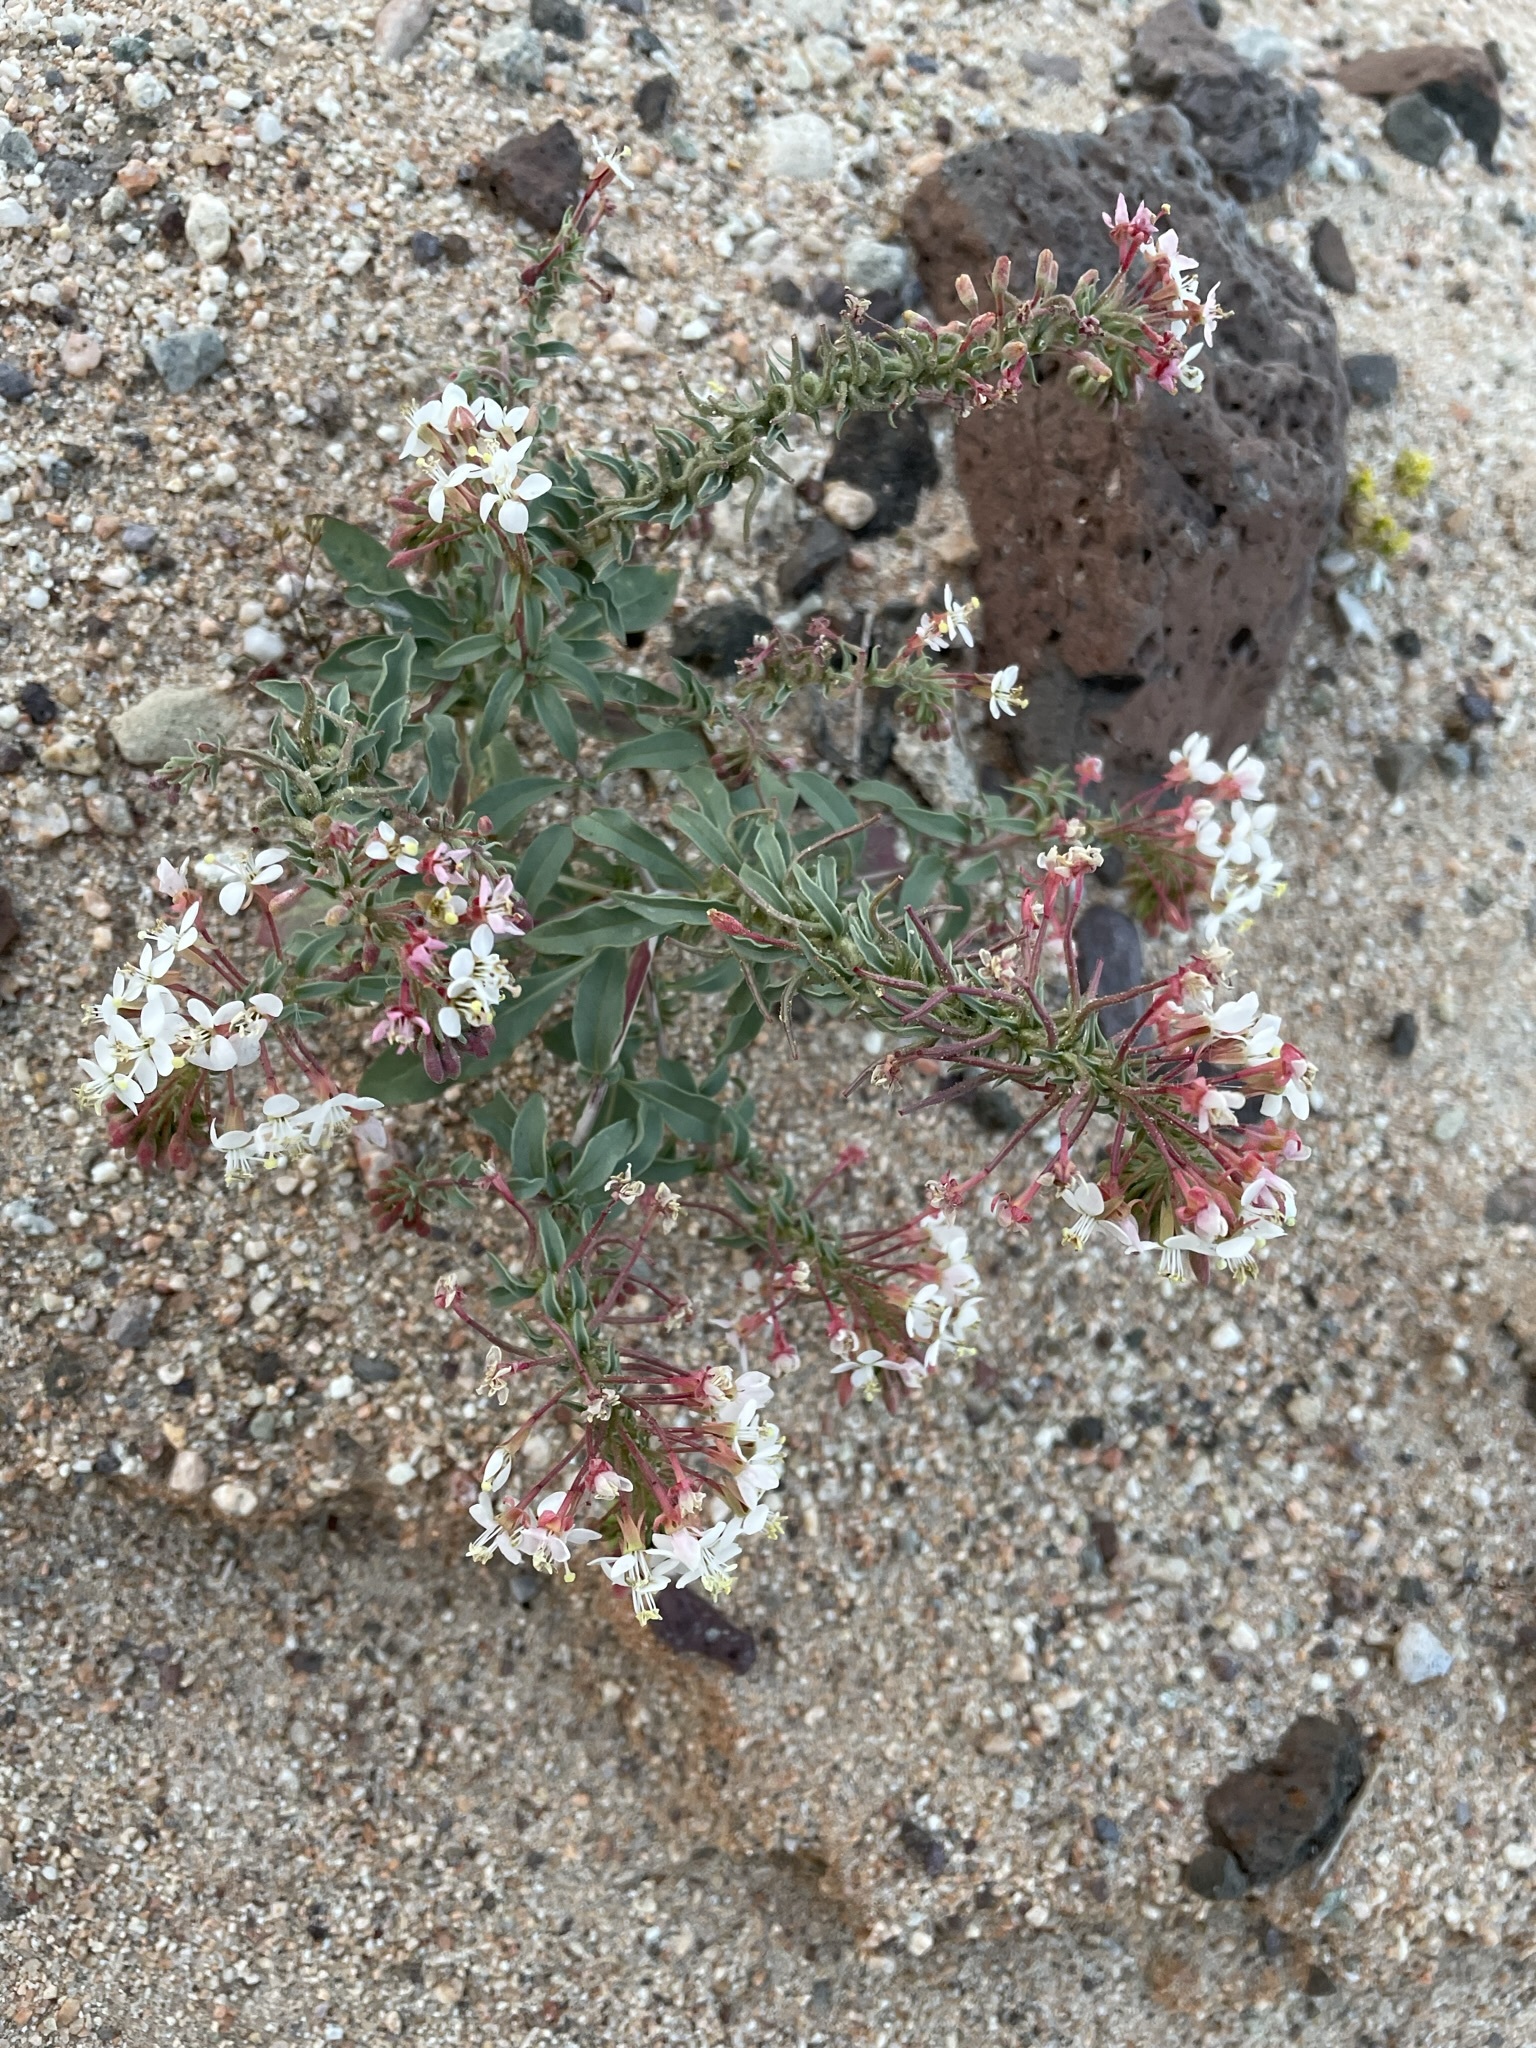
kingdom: Plantae
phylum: Tracheophyta
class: Magnoliopsida
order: Myrtales
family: Onagraceae
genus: Eremothera
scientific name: Eremothera boothii
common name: Booth's evening primrose
